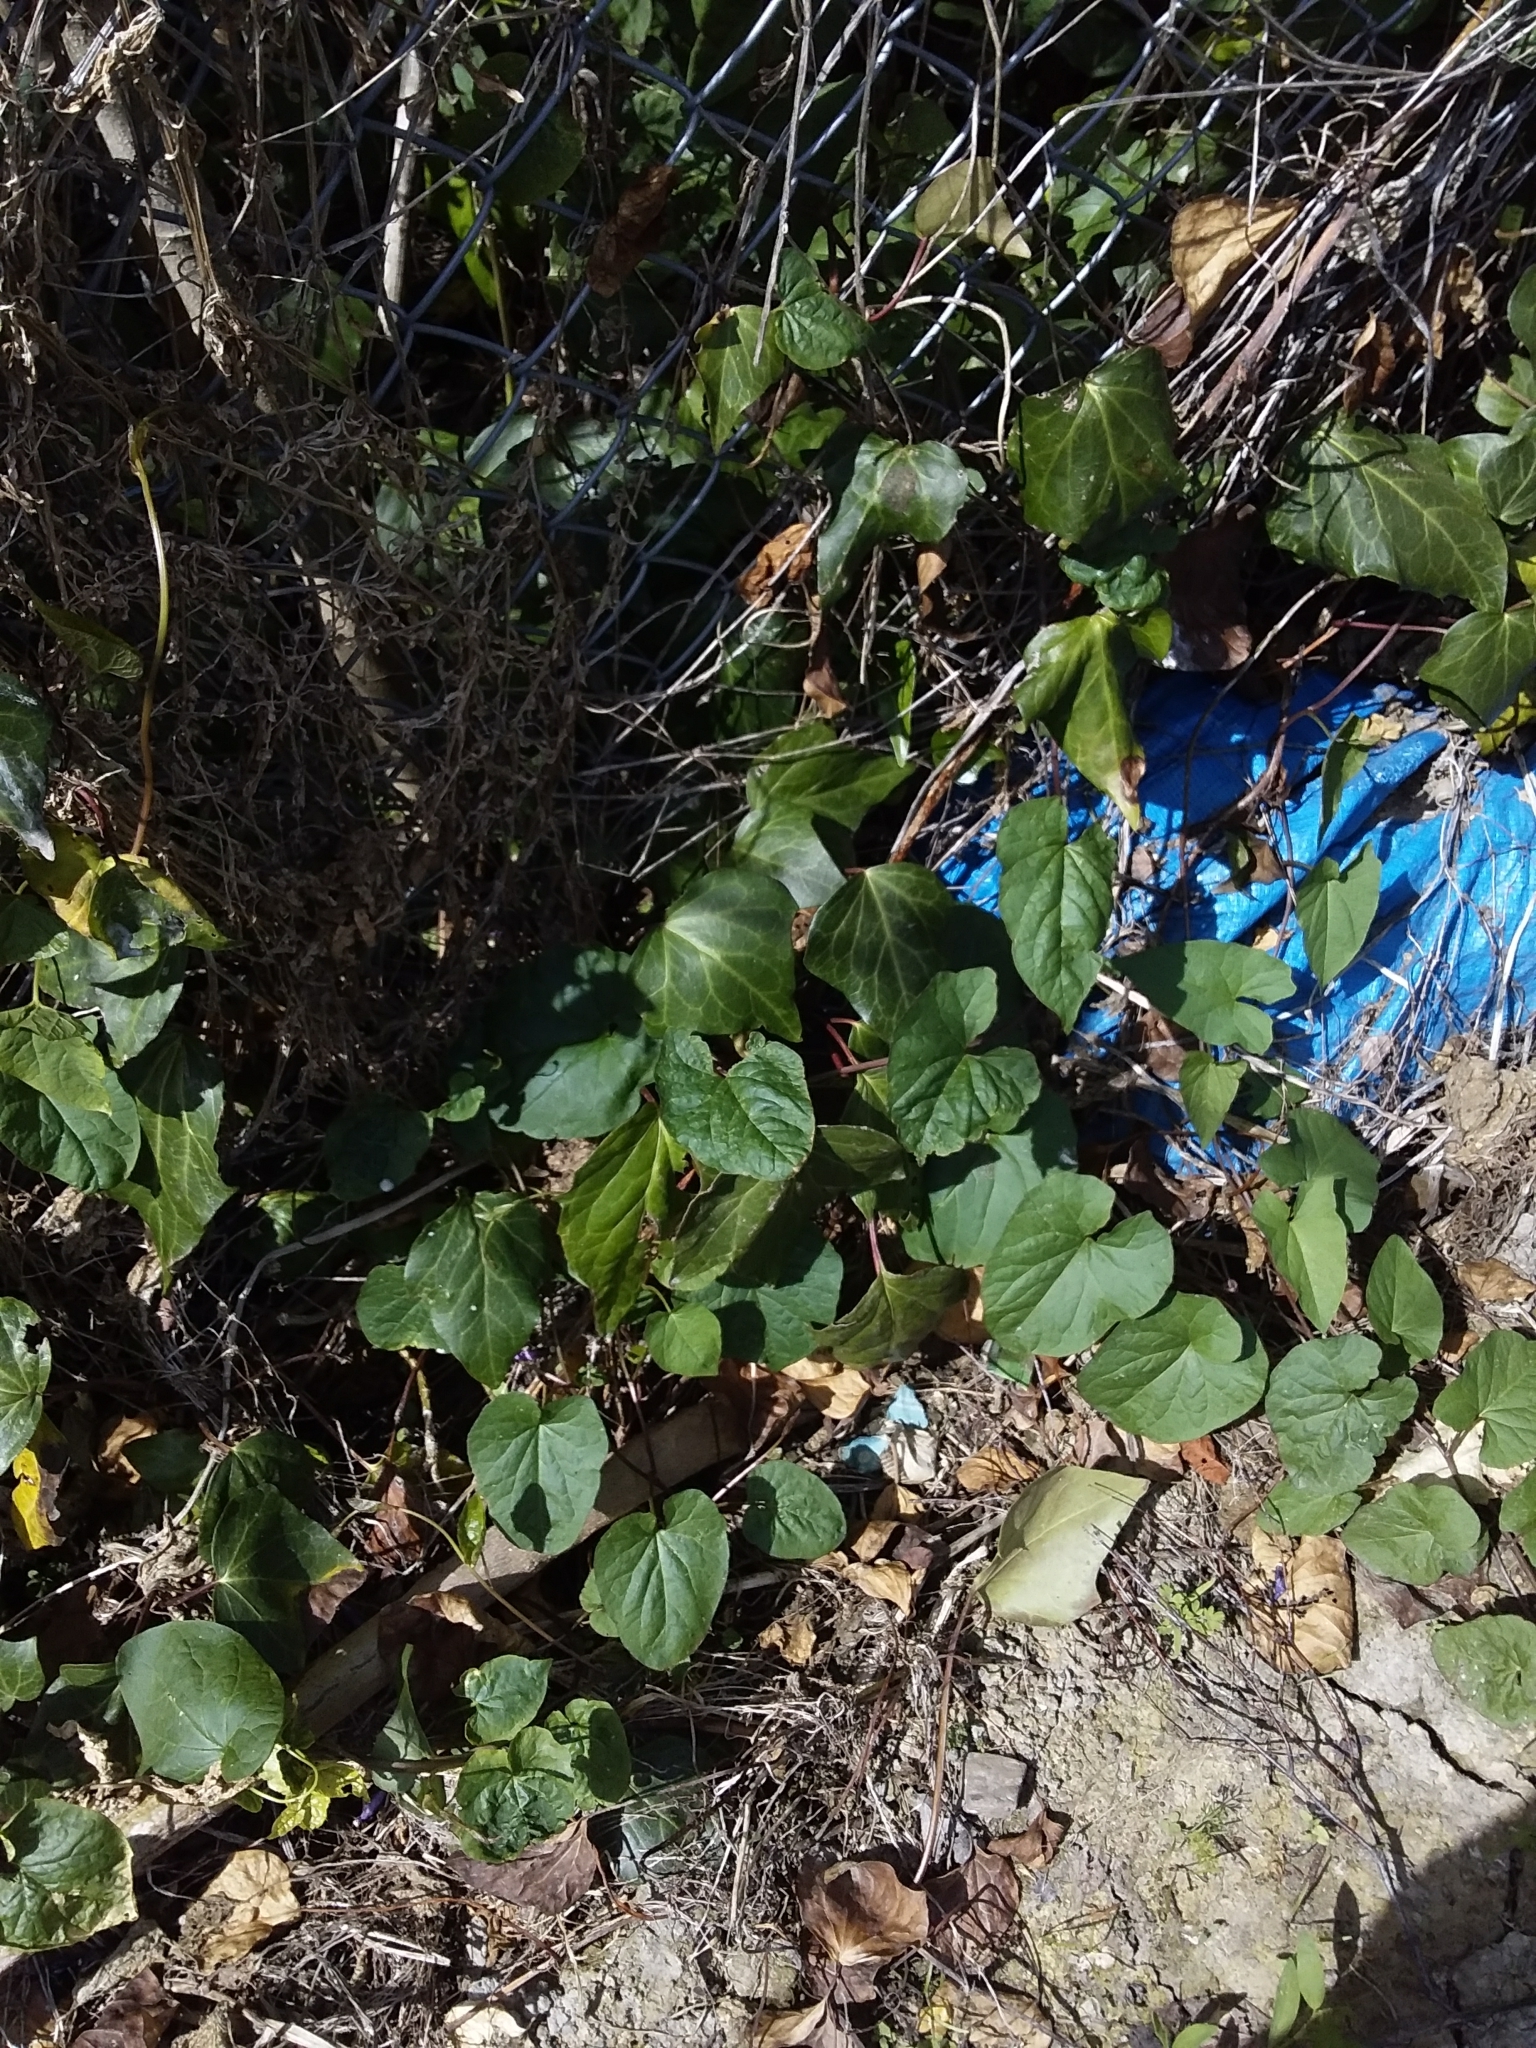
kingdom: Plantae
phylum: Tracheophyta
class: Magnoliopsida
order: Apiales
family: Araliaceae
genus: Hedera
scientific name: Hedera helix
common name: Ivy
